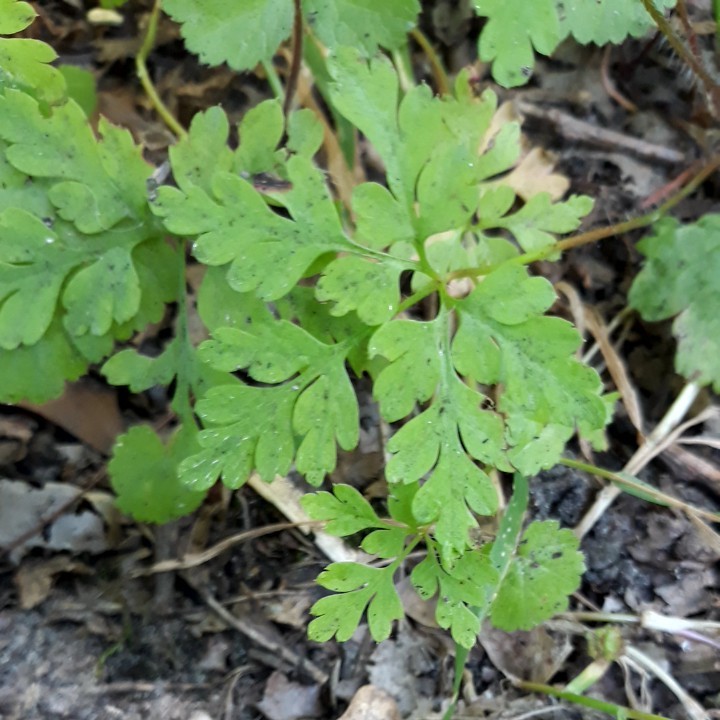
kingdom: Plantae
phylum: Tracheophyta
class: Magnoliopsida
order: Geraniales
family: Geraniaceae
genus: Geranium
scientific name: Geranium robertianum
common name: Herb-robert
